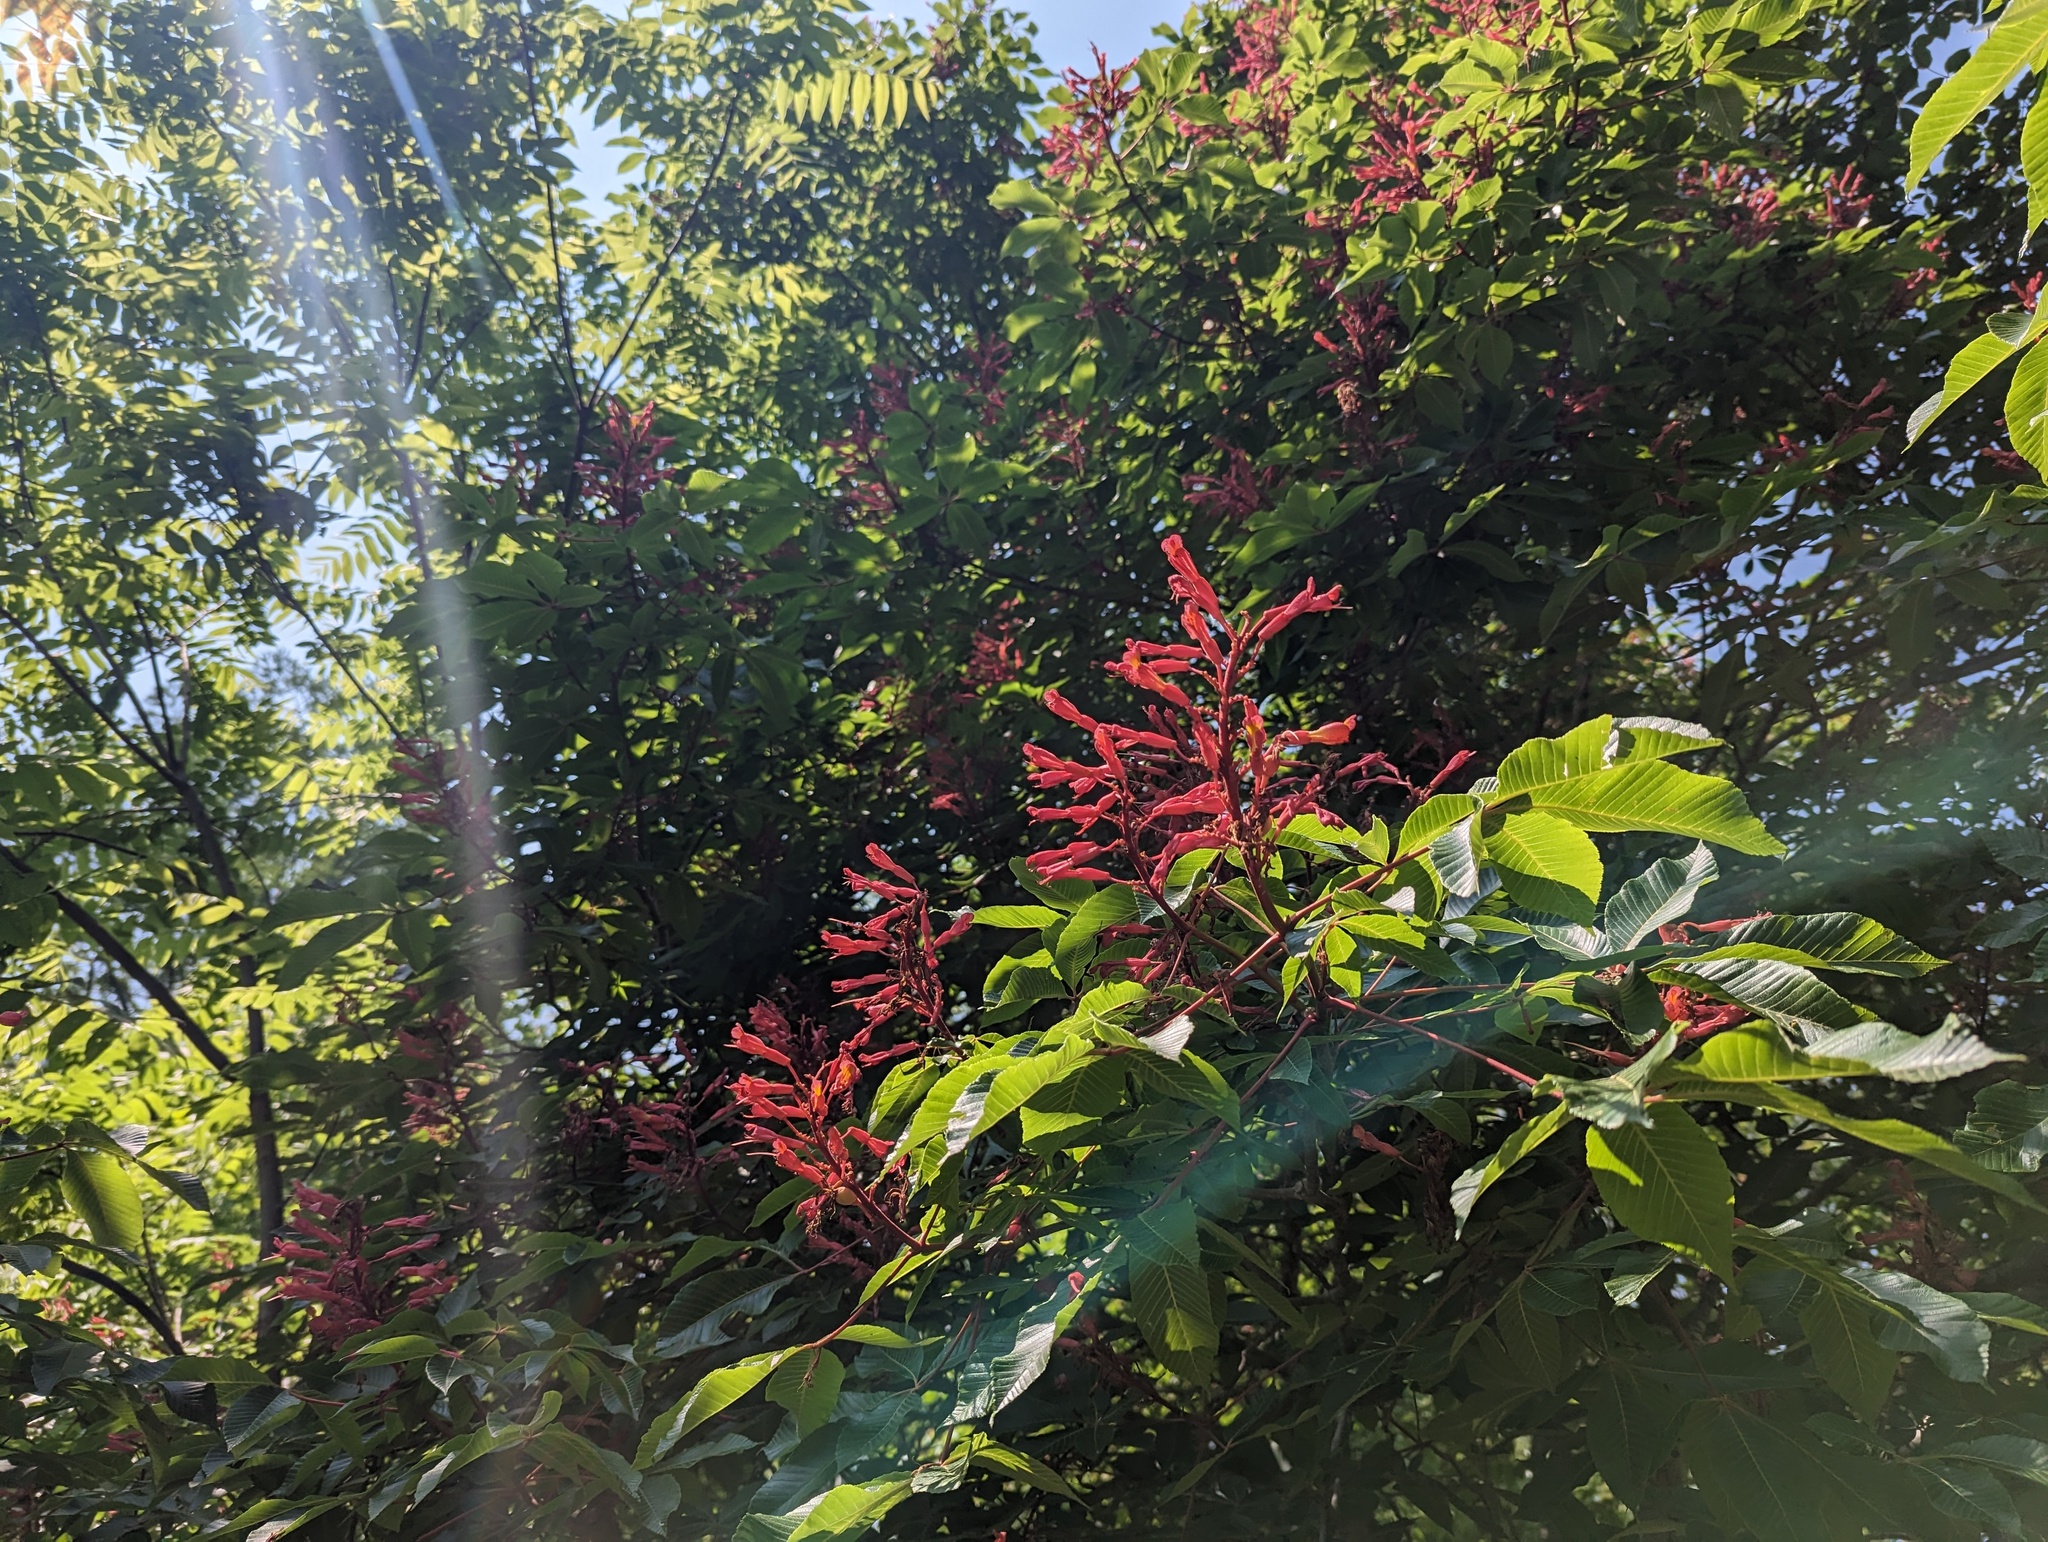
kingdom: Plantae
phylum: Tracheophyta
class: Magnoliopsida
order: Sapindales
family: Sapindaceae
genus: Aesculus
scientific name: Aesculus pavia
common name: Red buckeye
